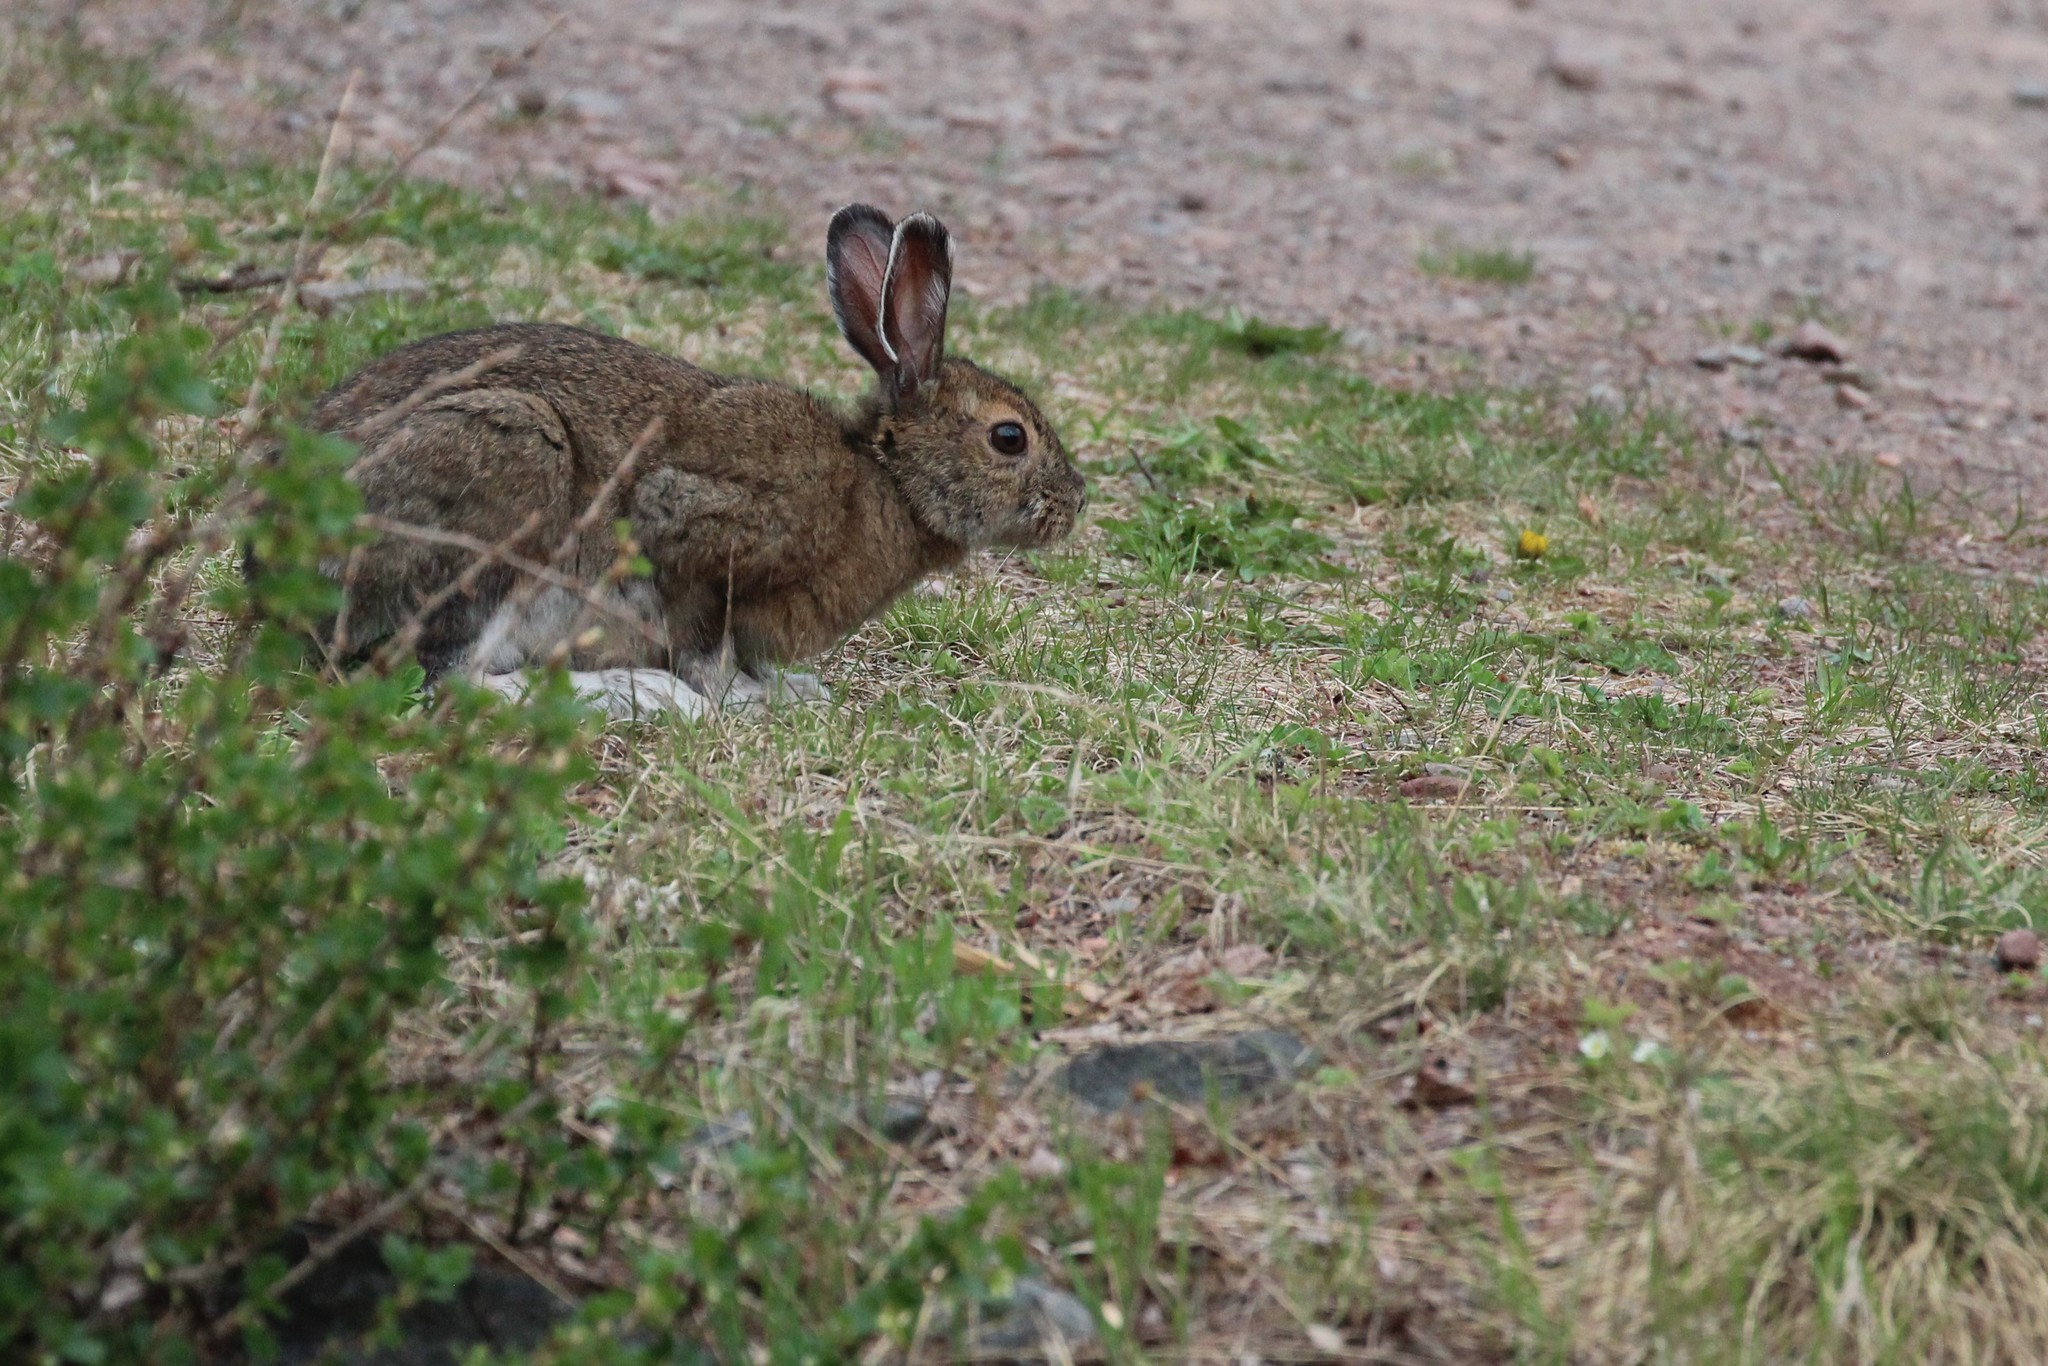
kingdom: Animalia
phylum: Chordata
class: Mammalia
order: Lagomorpha
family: Leporidae
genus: Lepus
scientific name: Lepus americanus
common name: Snowshoe hare
